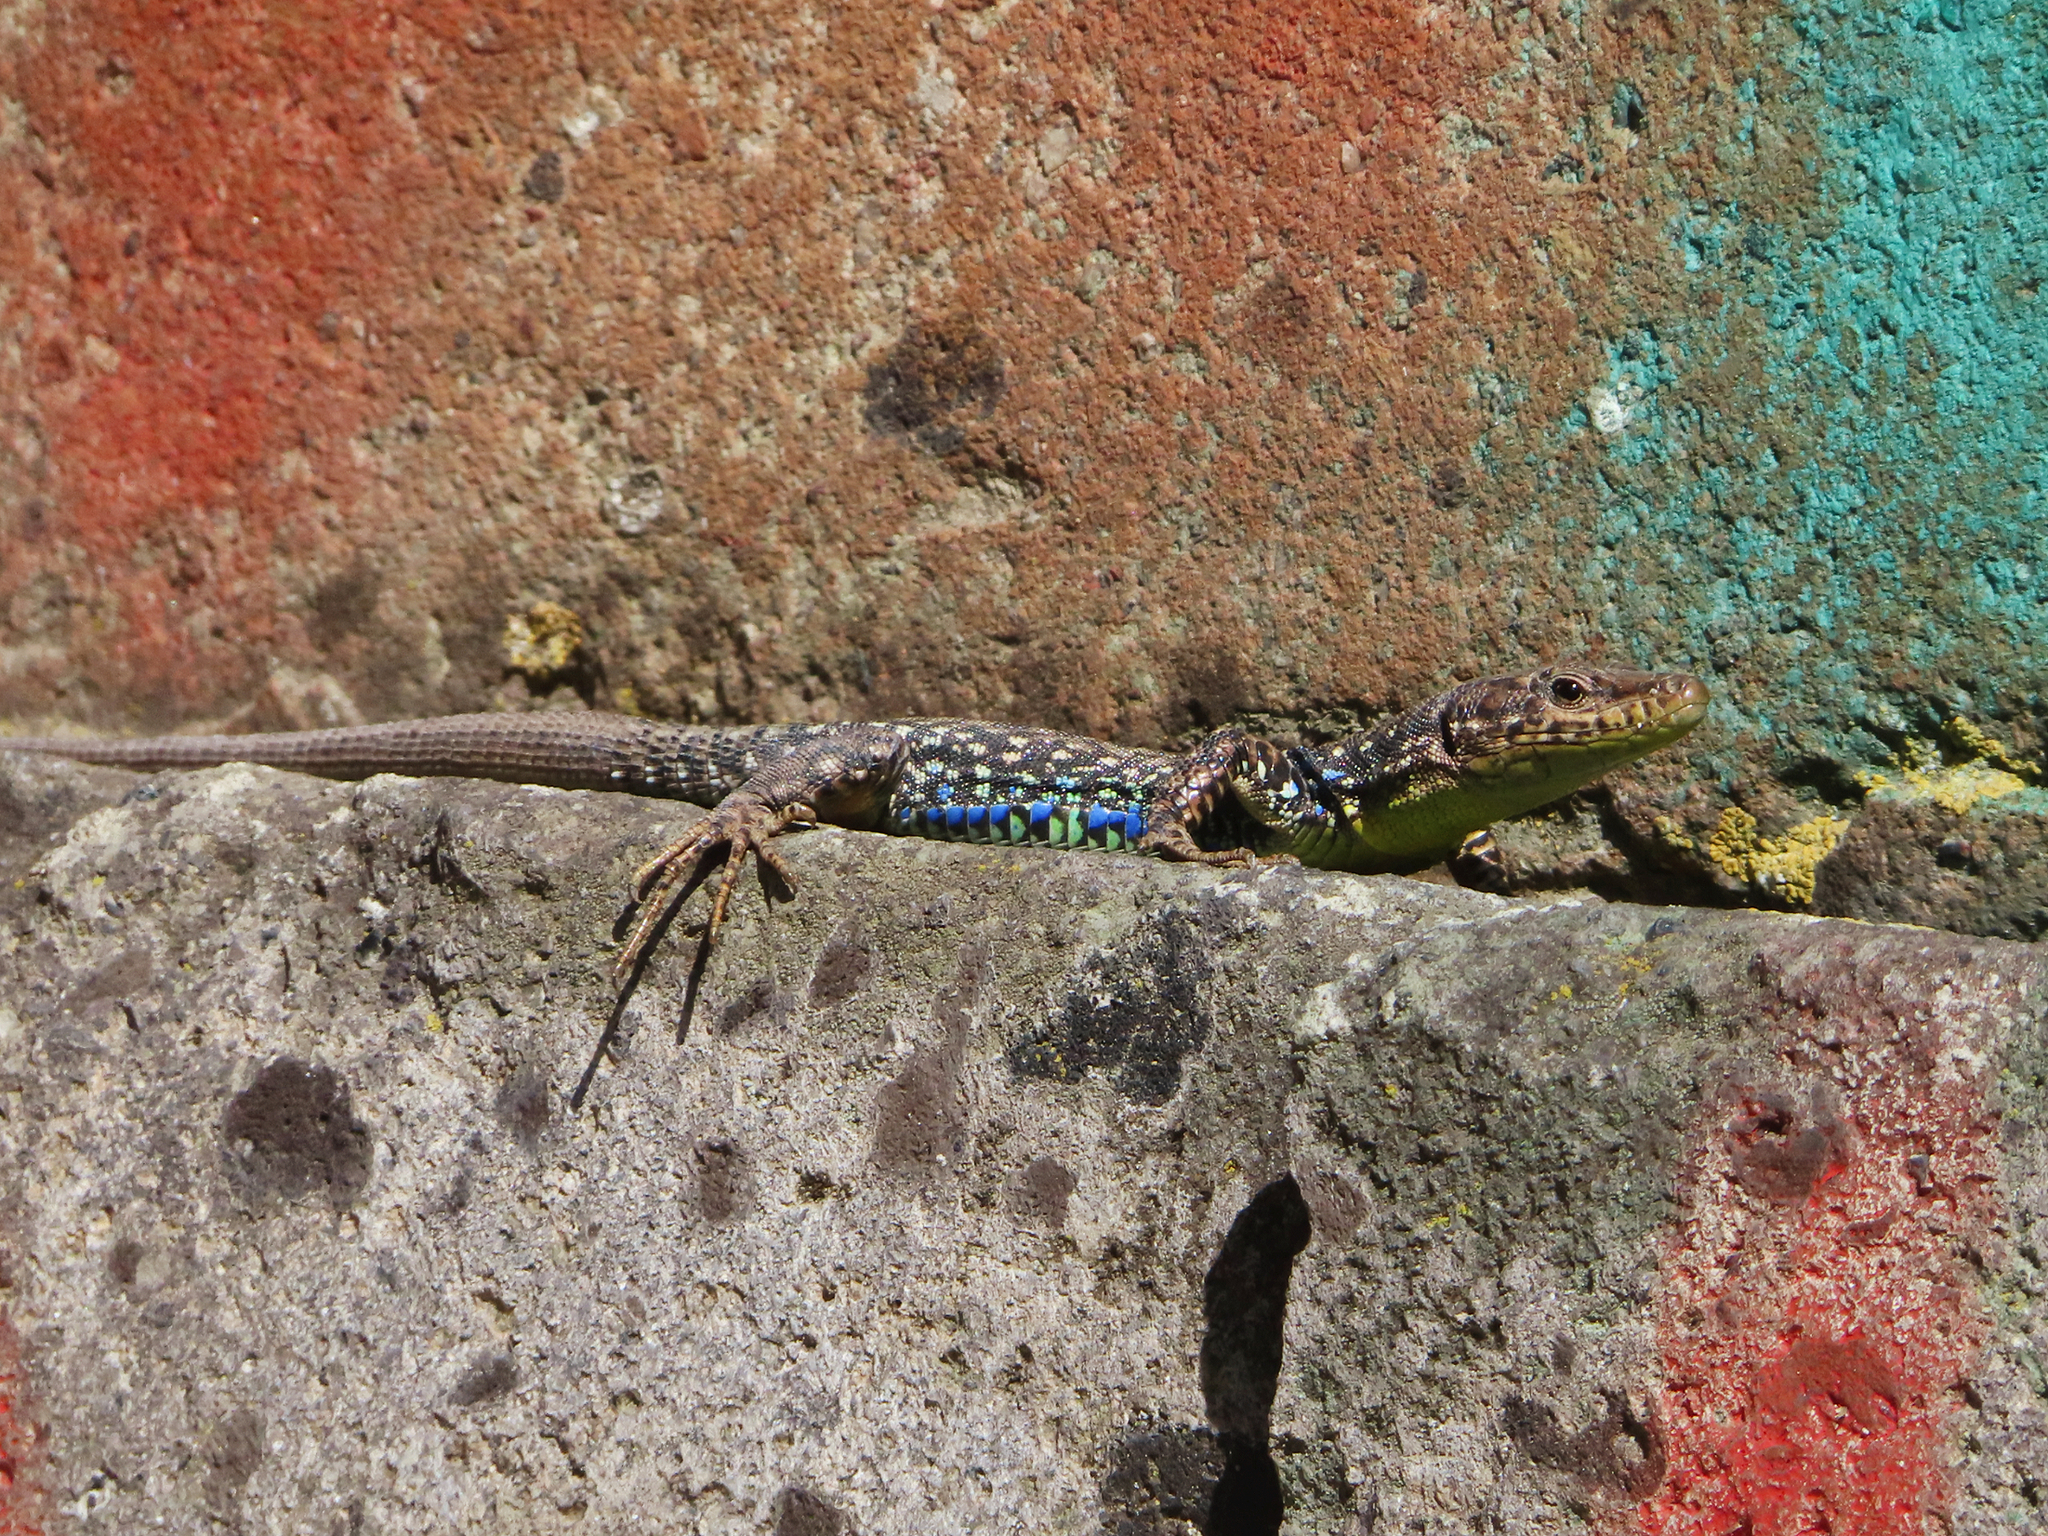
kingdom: Animalia
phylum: Chordata
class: Squamata
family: Lacertidae
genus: Darevskia
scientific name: Darevskia
